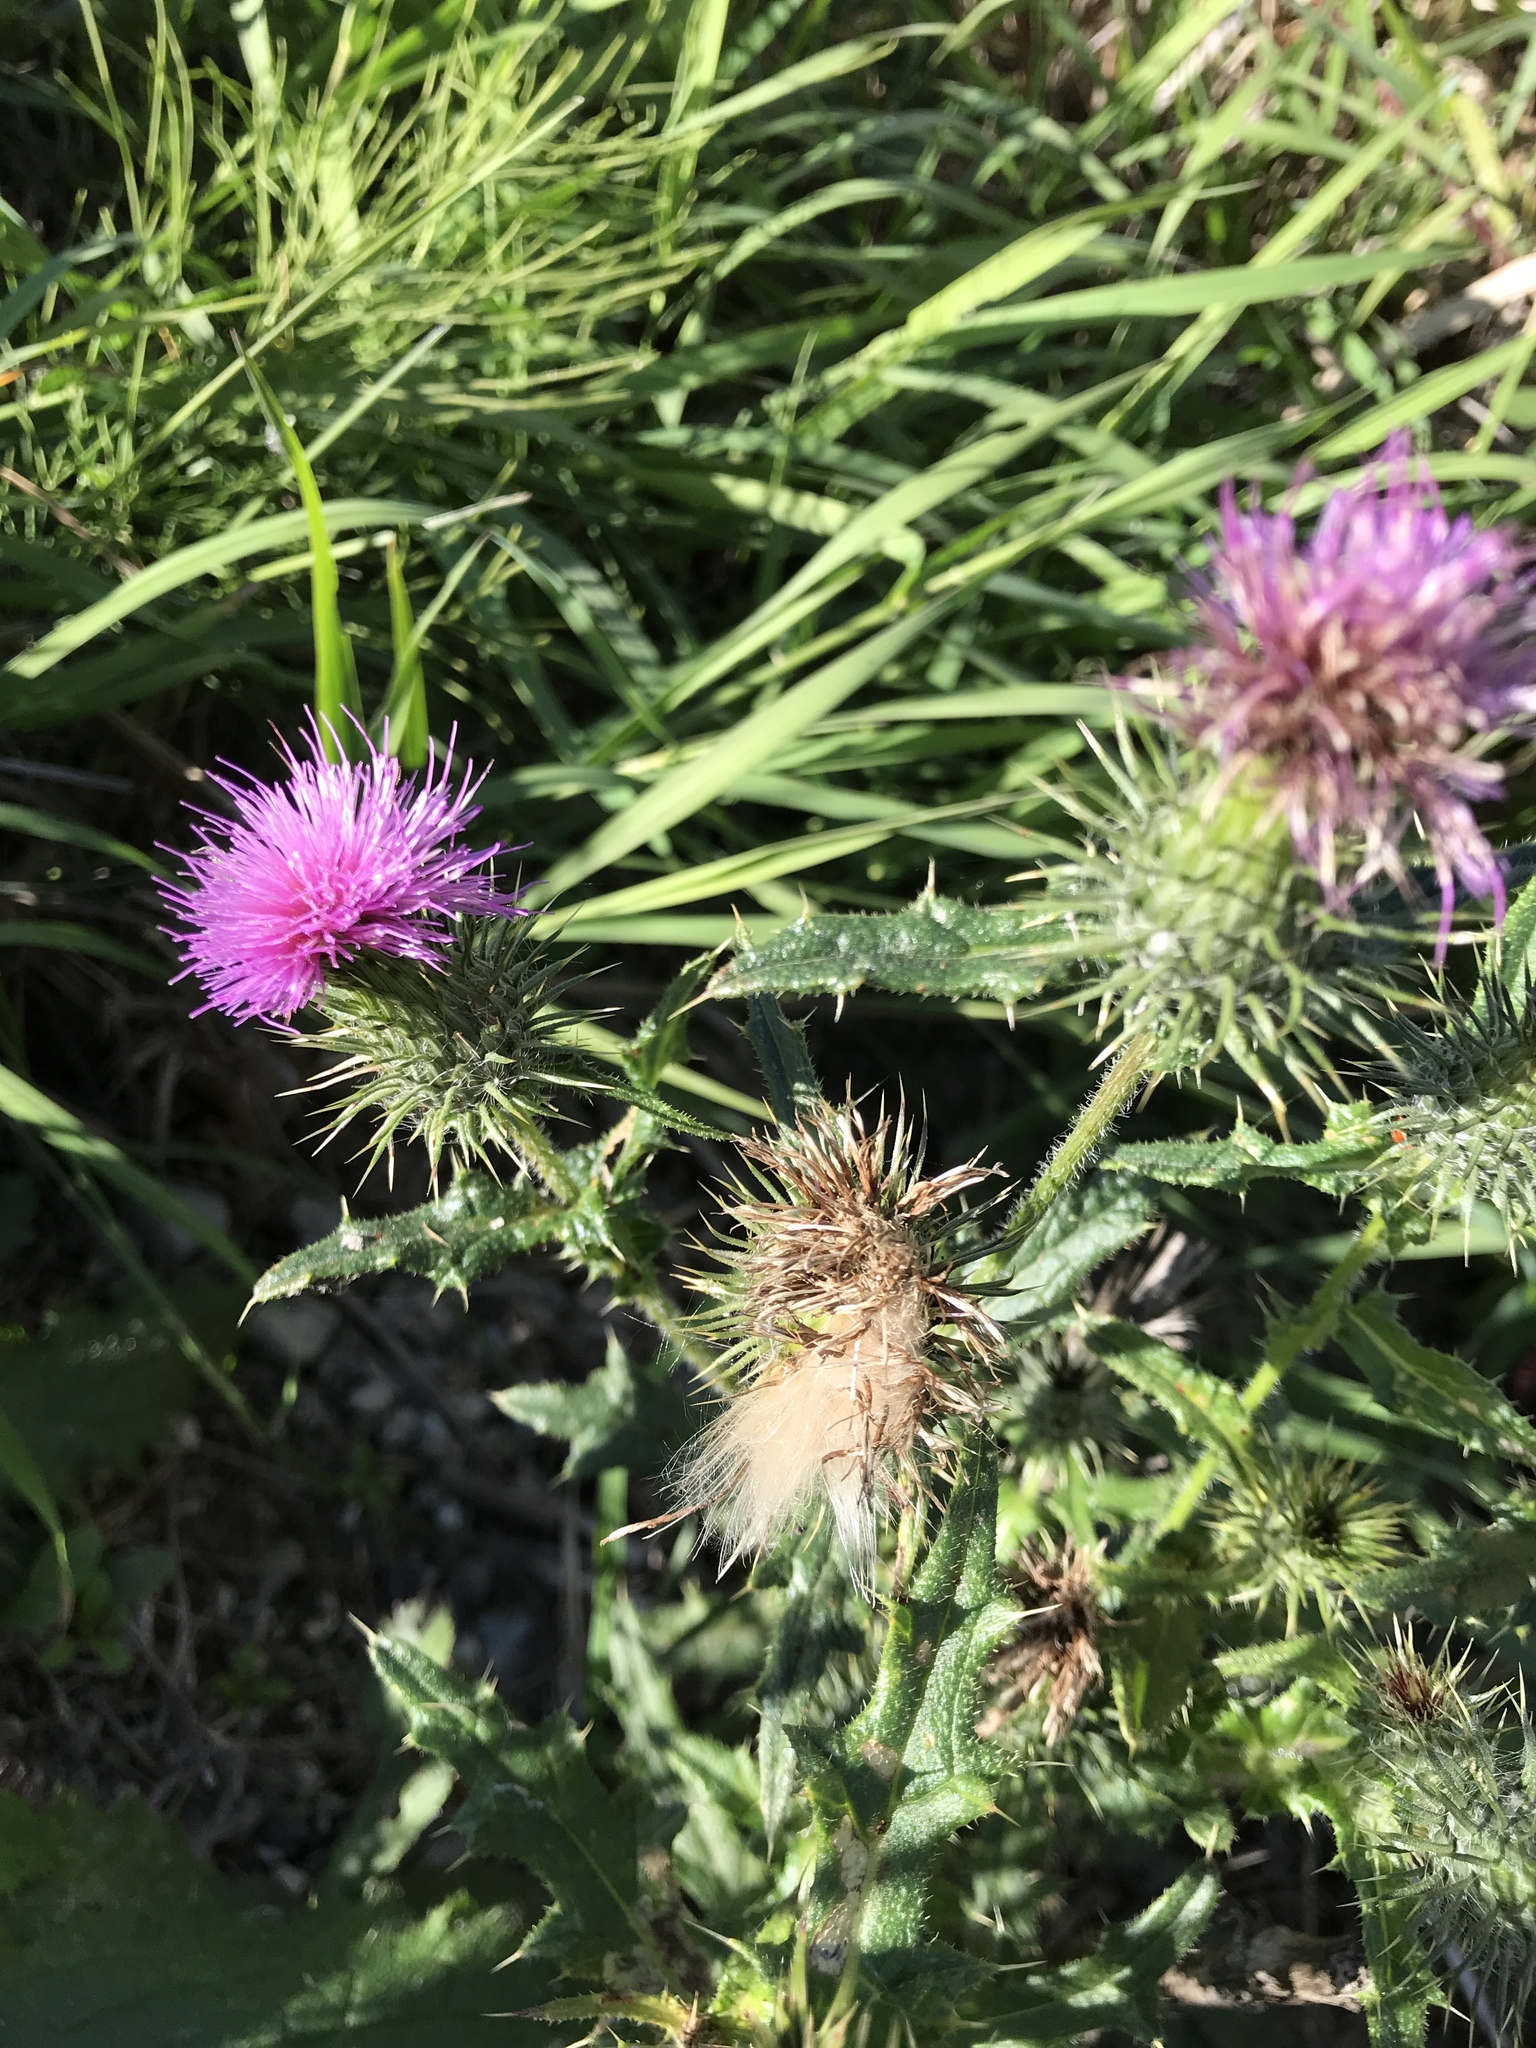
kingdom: Plantae
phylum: Tracheophyta
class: Magnoliopsida
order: Asterales
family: Asteraceae
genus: Cirsium
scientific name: Cirsium vulgare
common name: Bull thistle
